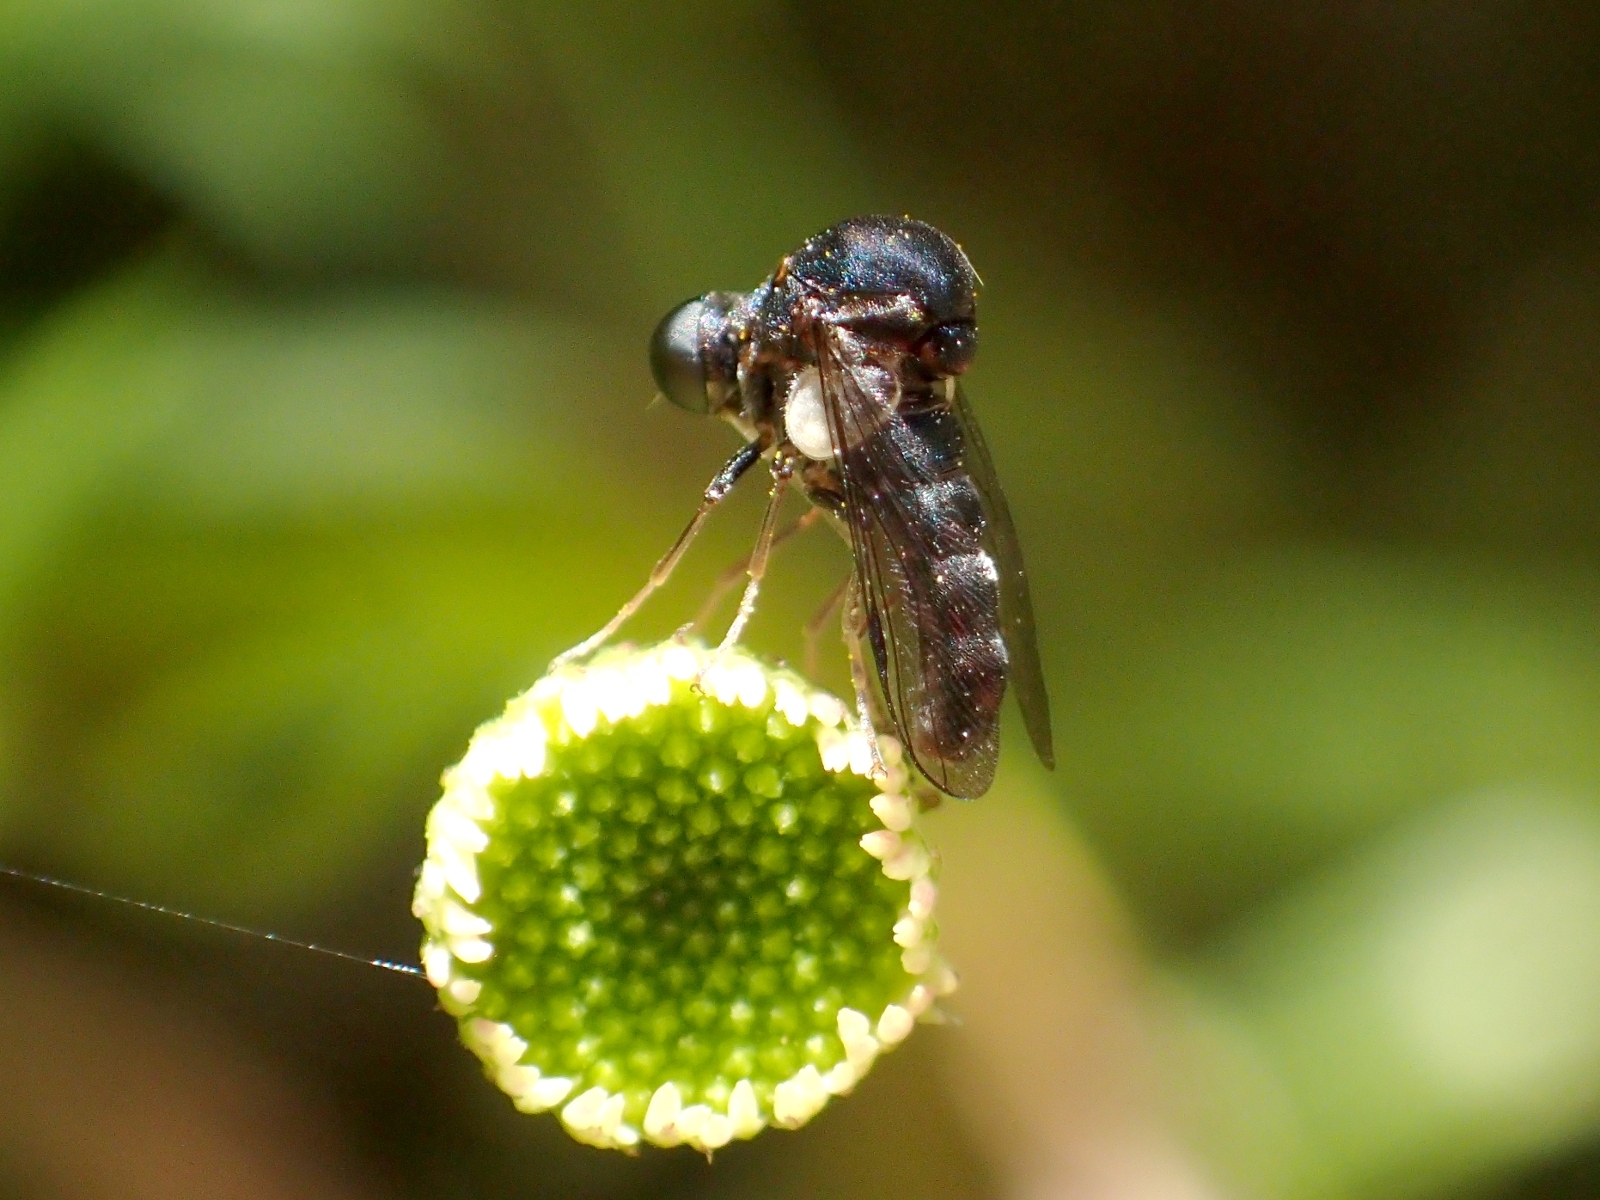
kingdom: Animalia
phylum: Arthropoda
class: Insecta
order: Diptera
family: Acroceridae
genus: Helle
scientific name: Helle longirostris
